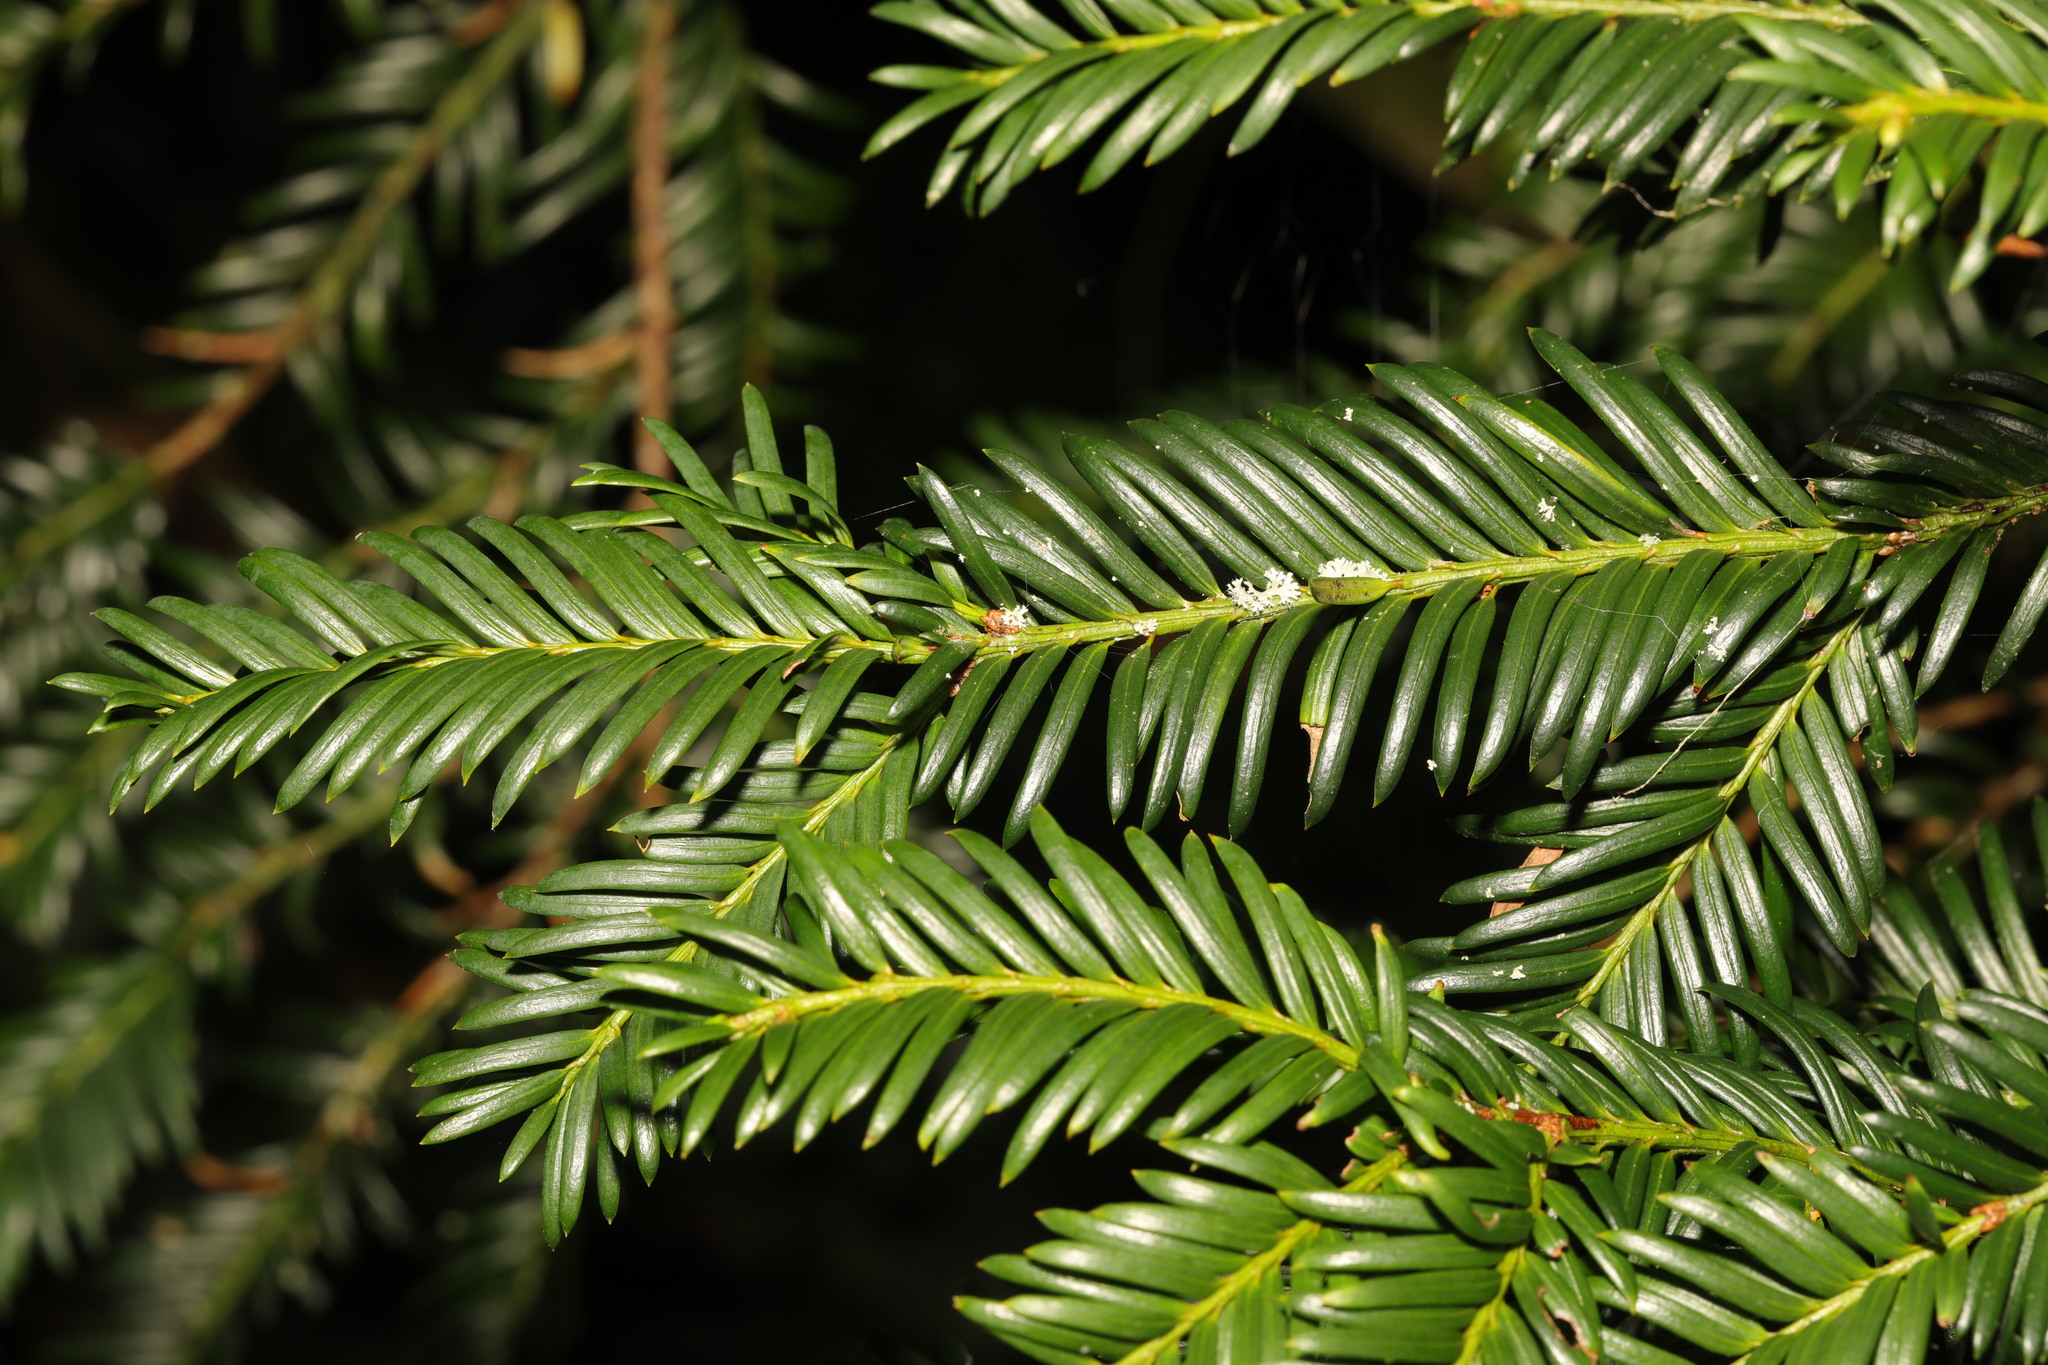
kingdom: Plantae
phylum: Tracheophyta
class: Pinopsida
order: Pinales
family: Taxaceae
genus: Taxus
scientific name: Taxus baccata
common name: Yew
